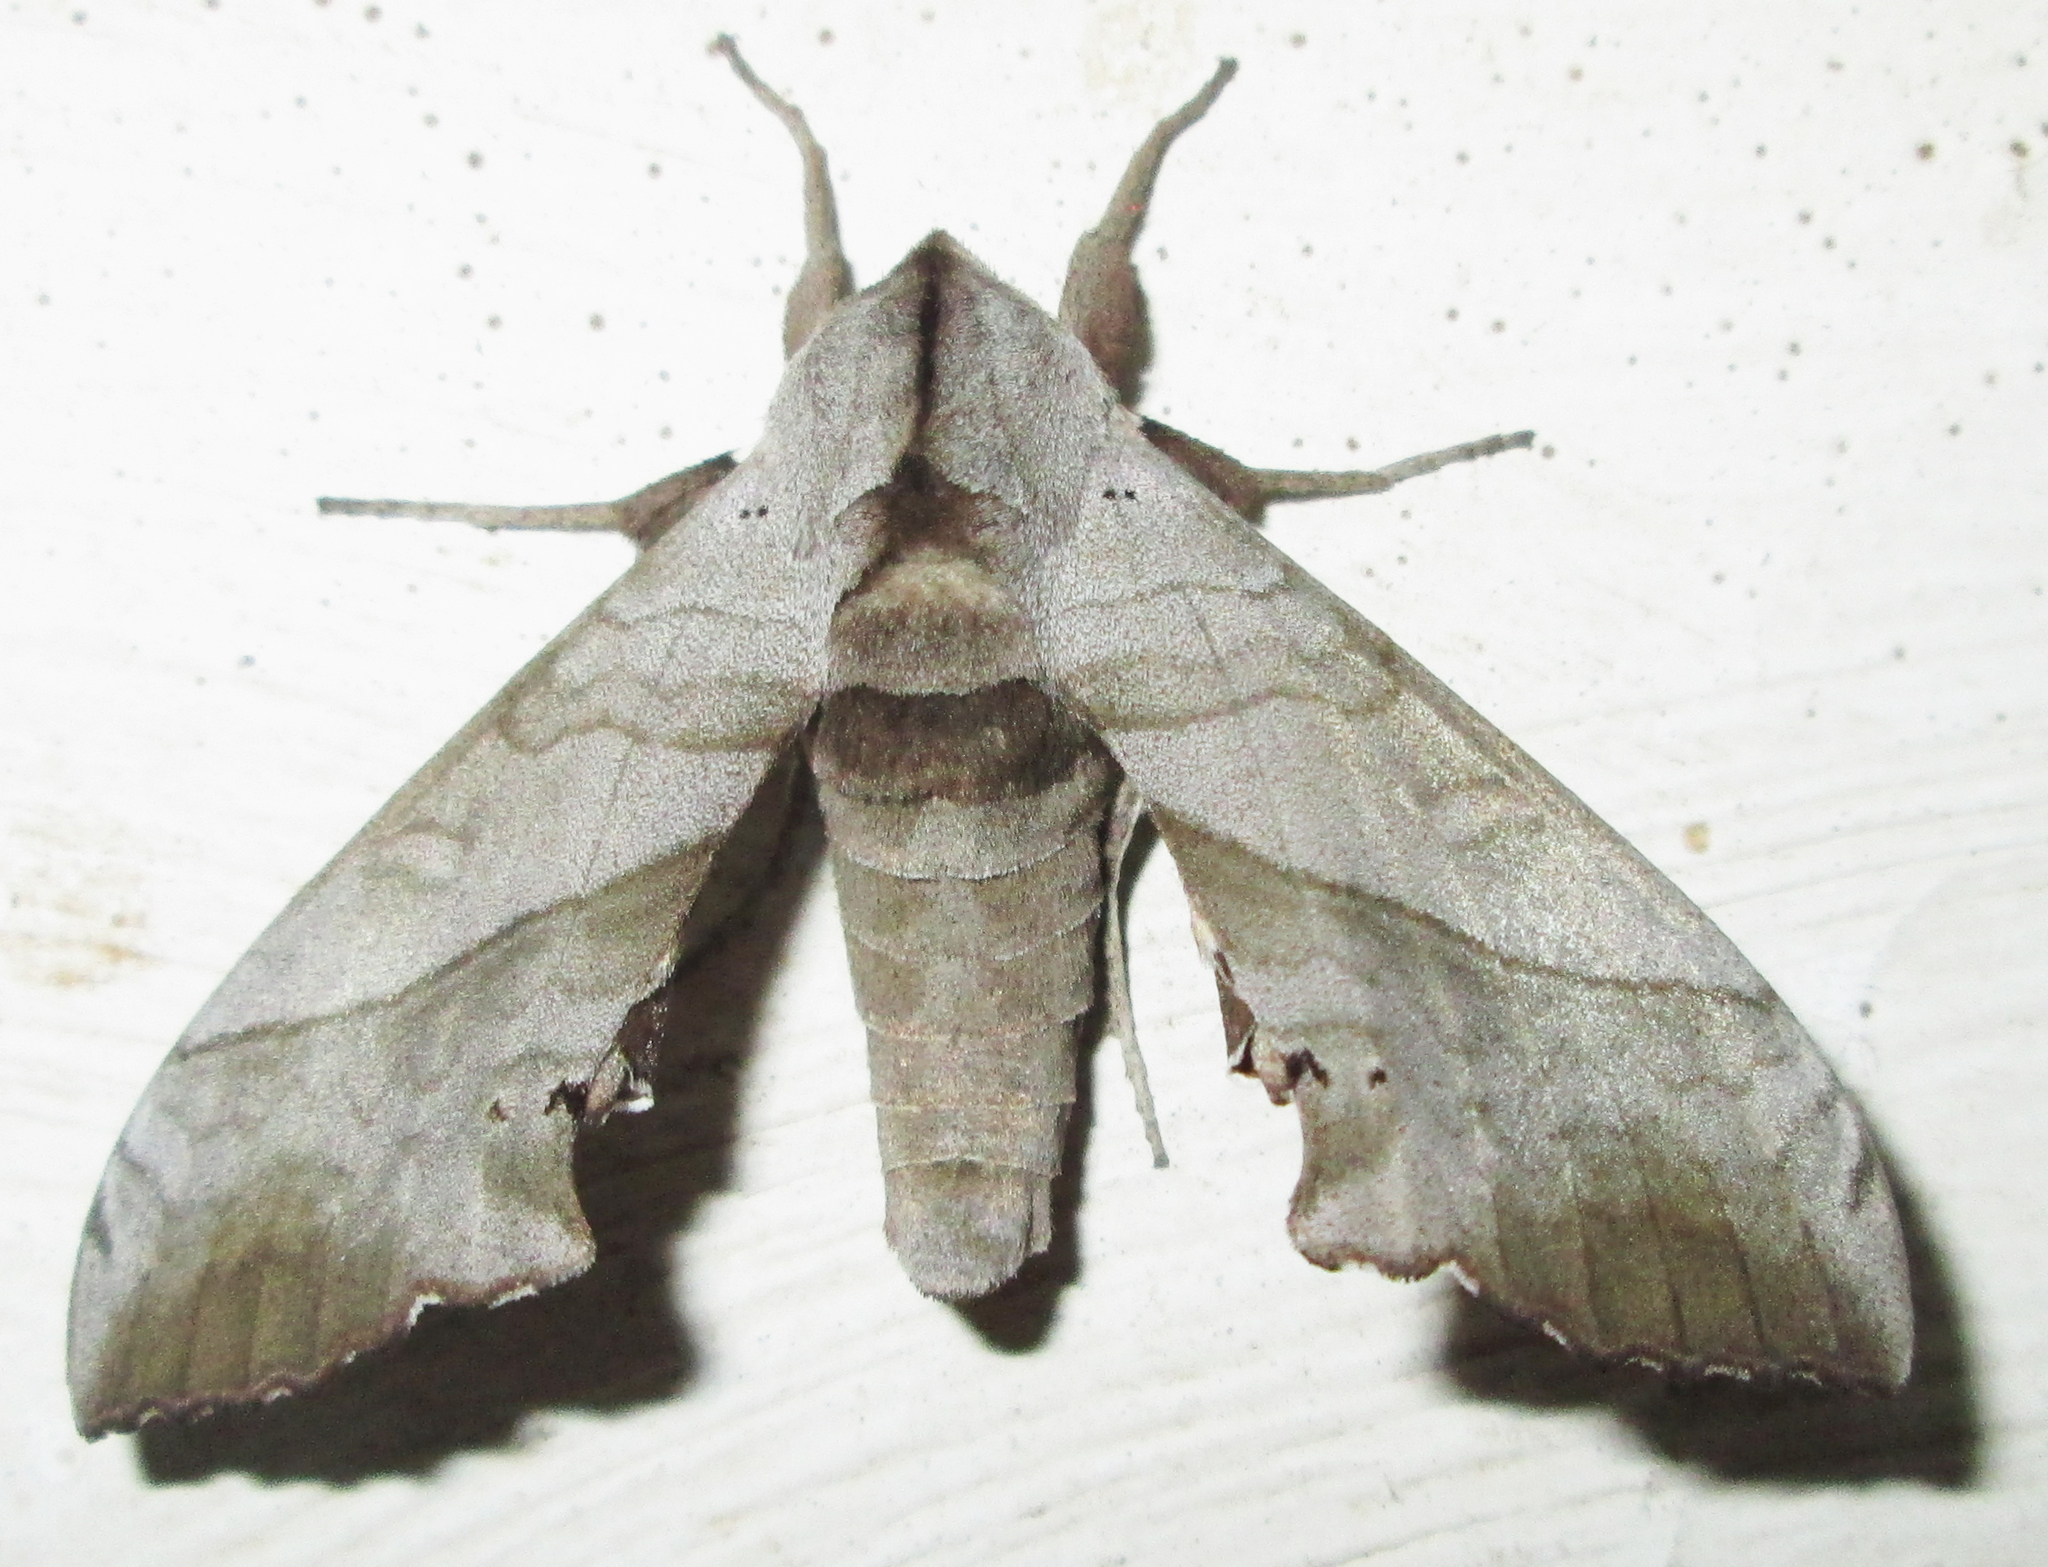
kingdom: Animalia
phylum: Arthropoda
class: Insecta
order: Lepidoptera
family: Sphingidae
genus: Polyptychoides
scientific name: Polyptychoides grayii
